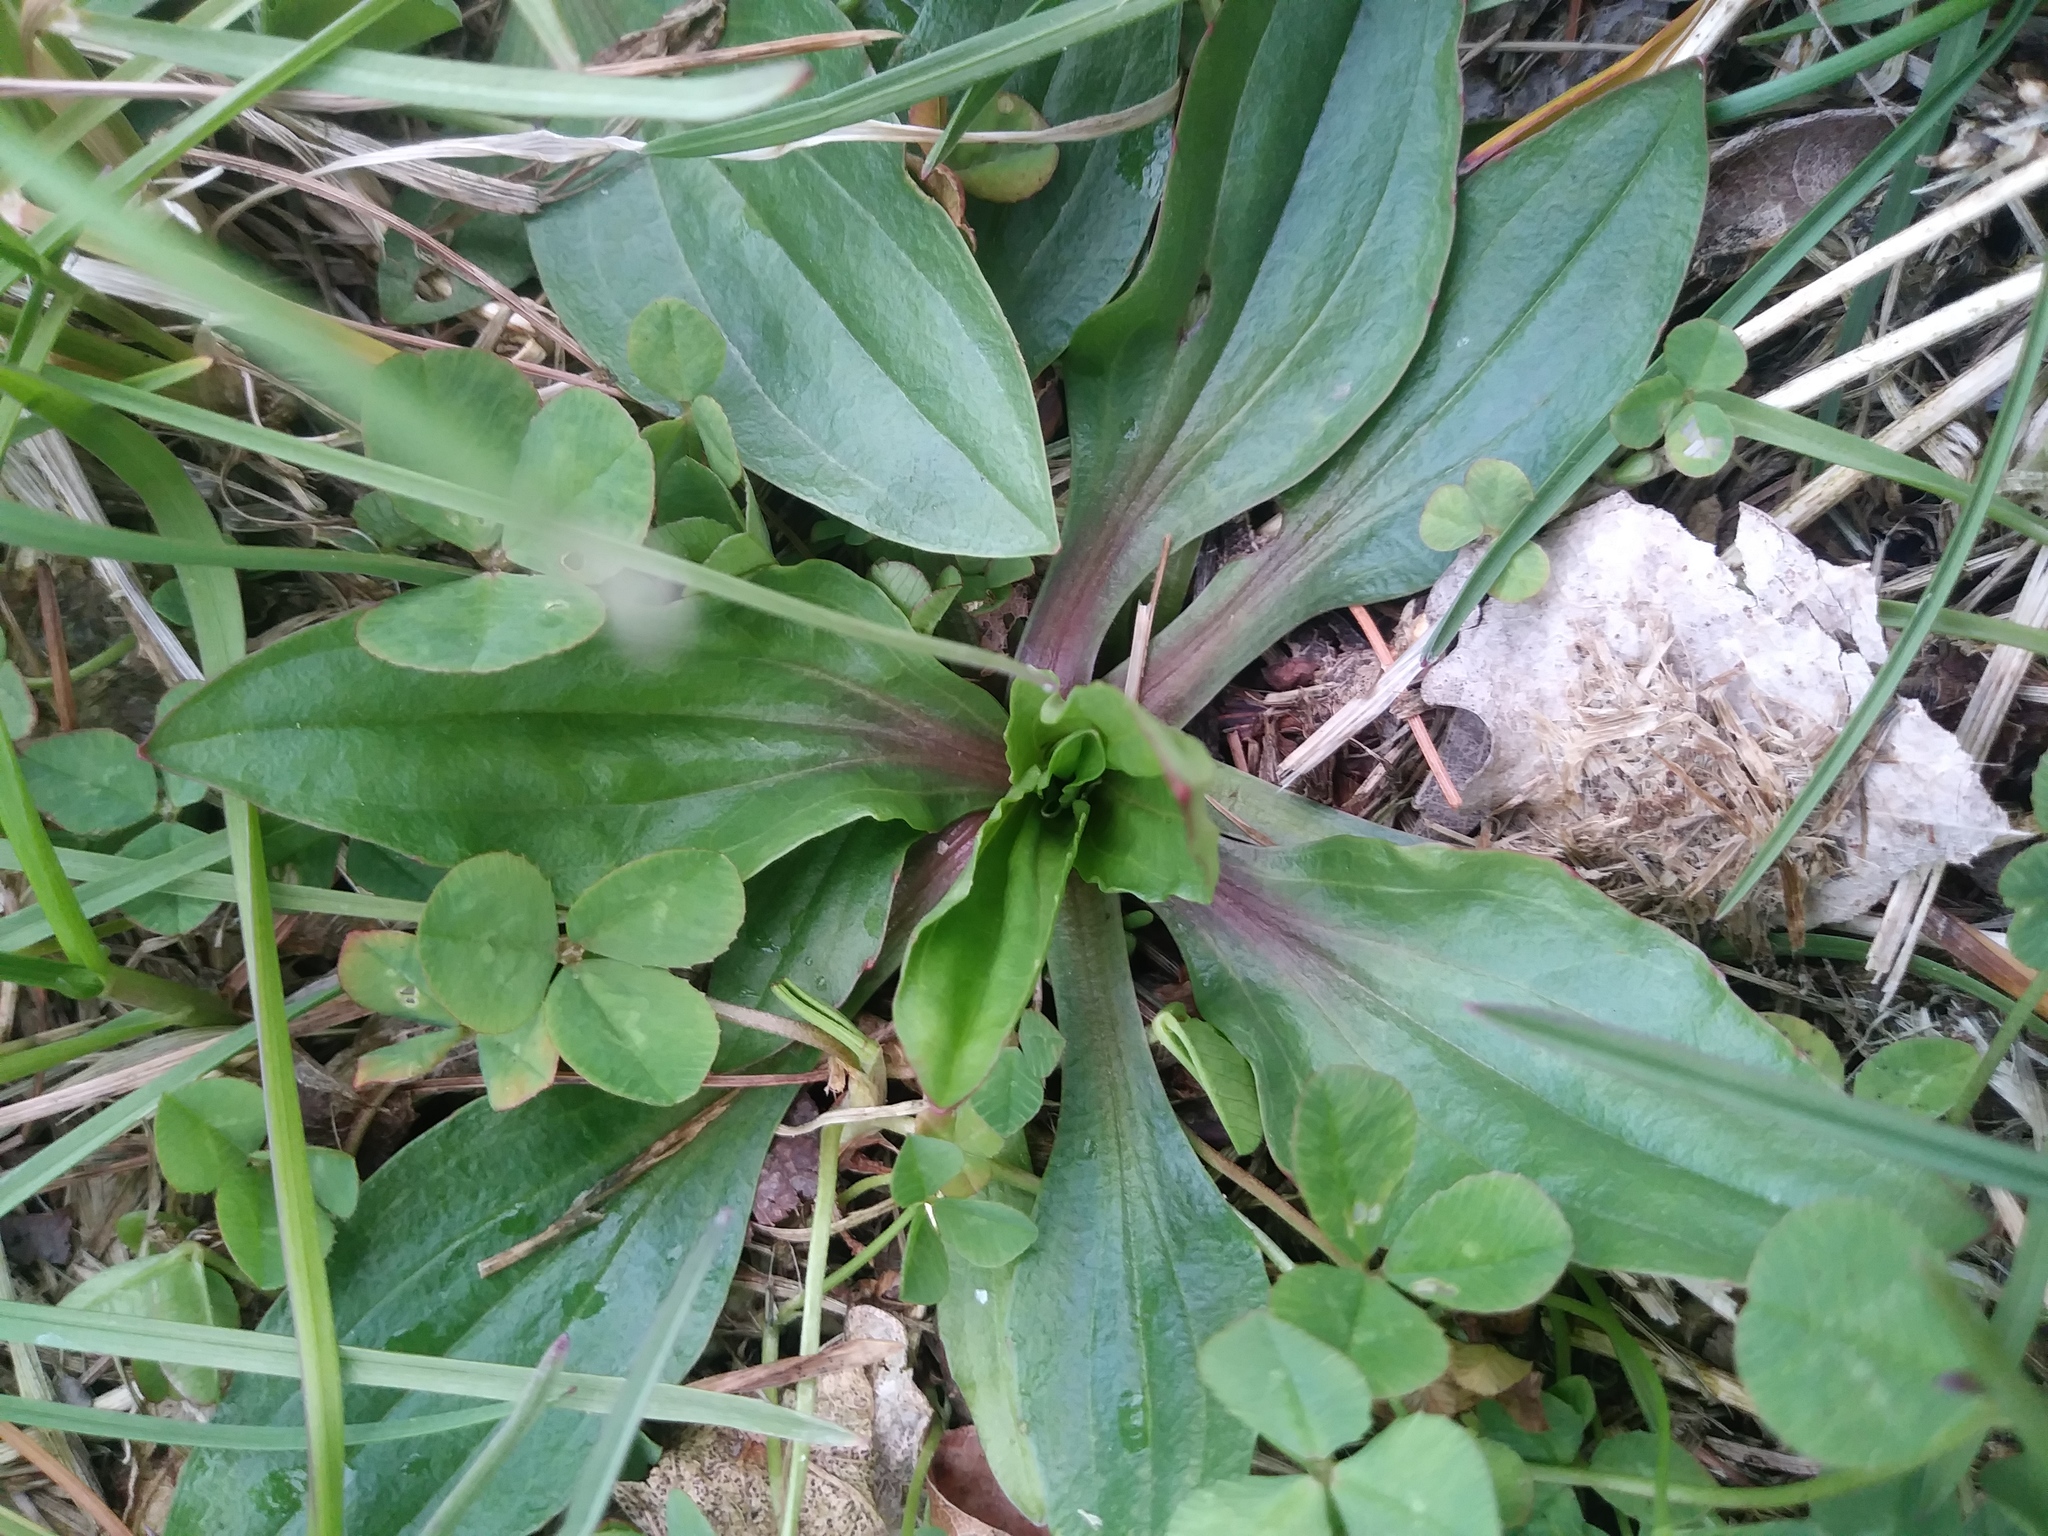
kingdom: Plantae
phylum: Tracheophyta
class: Magnoliopsida
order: Lamiales
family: Plantaginaceae
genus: Plantago
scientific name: Plantago rugelii
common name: American plantain
